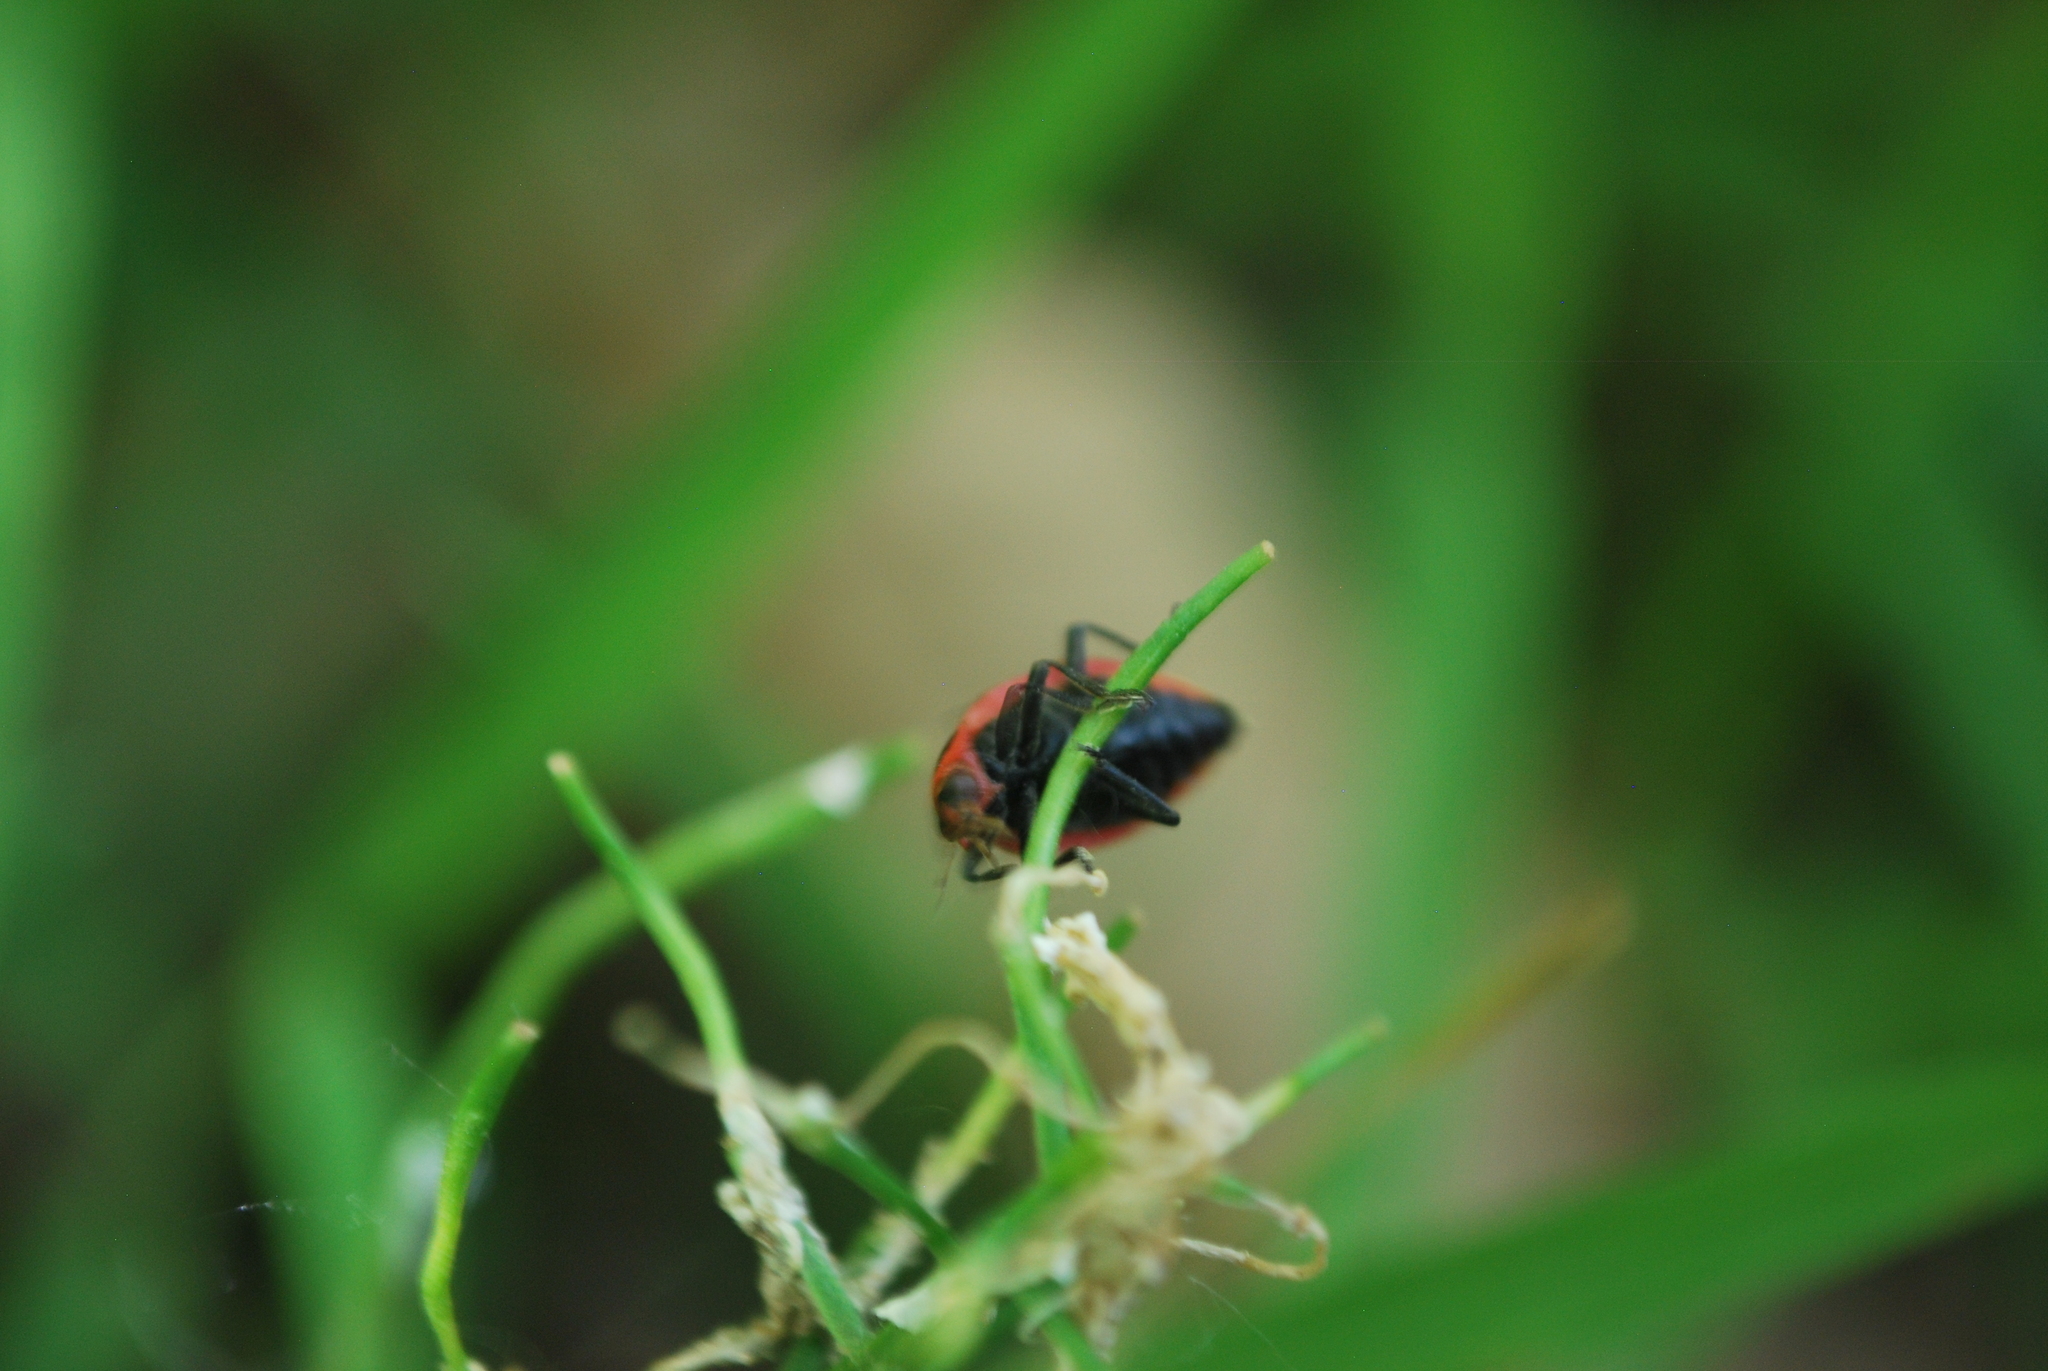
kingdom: Animalia
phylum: Arthropoda
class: Insecta
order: Coleoptera
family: Coccinellidae
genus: Coleomegilla
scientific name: Coleomegilla maculata
